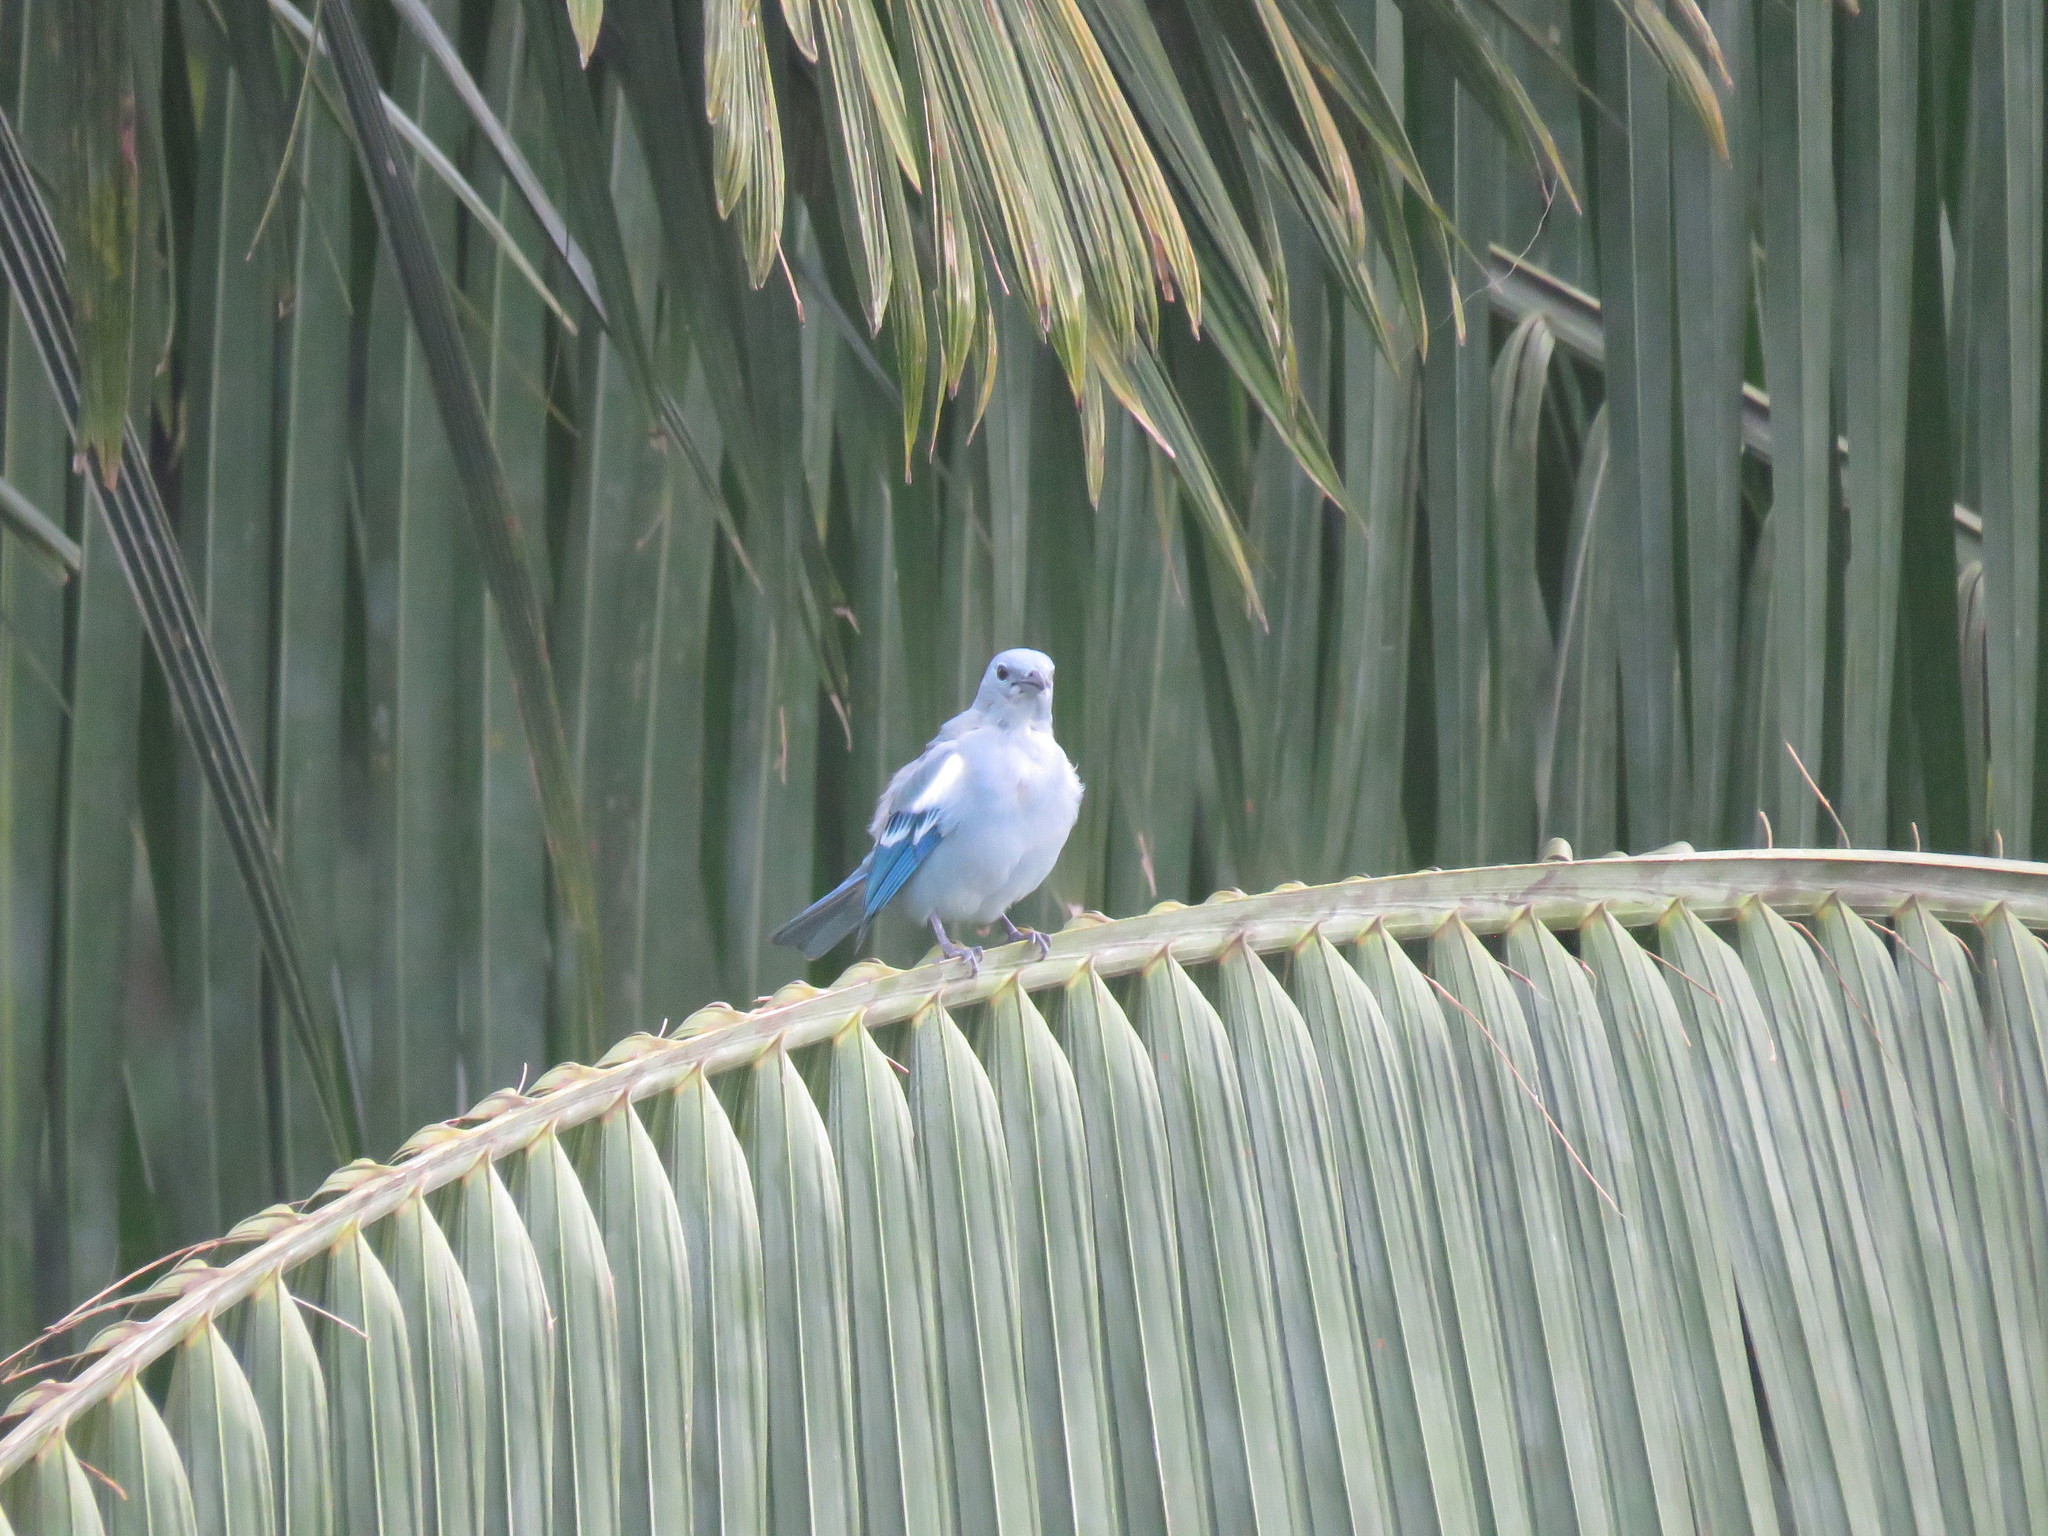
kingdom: Animalia
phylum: Chordata
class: Aves
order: Passeriformes
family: Thraupidae
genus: Thraupis
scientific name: Thraupis episcopus
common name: Blue-grey tanager
